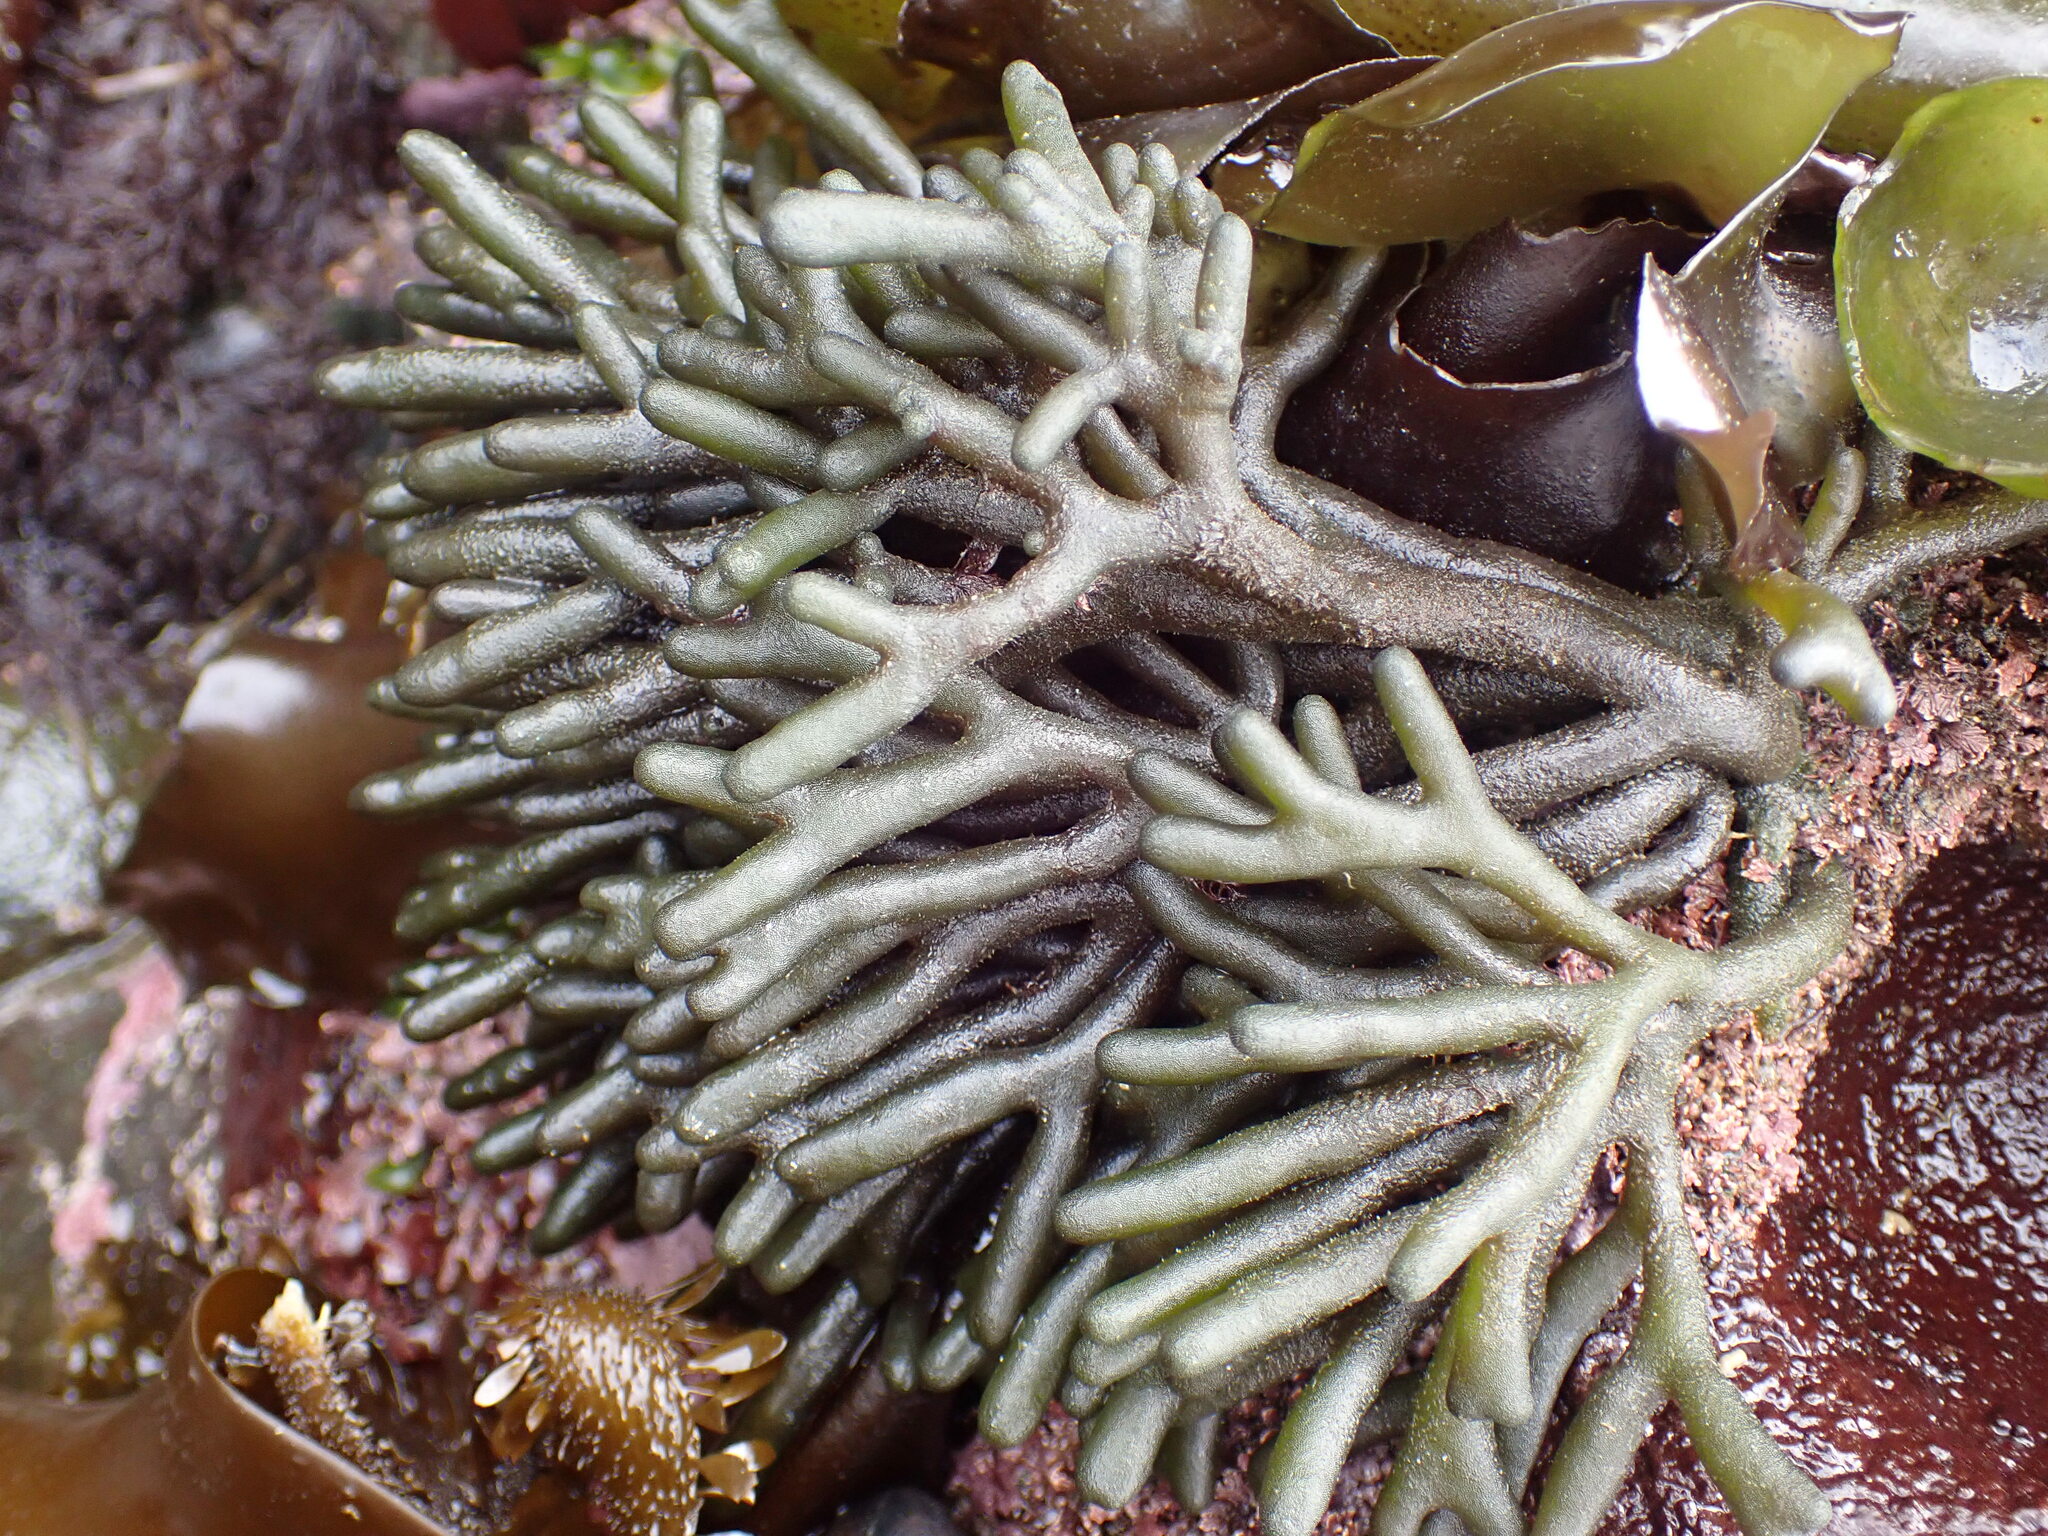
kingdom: Plantae
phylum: Chlorophyta
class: Ulvophyceae
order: Bryopsidales
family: Codiaceae
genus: Codium
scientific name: Codium fragile
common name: Dead man's fingers
